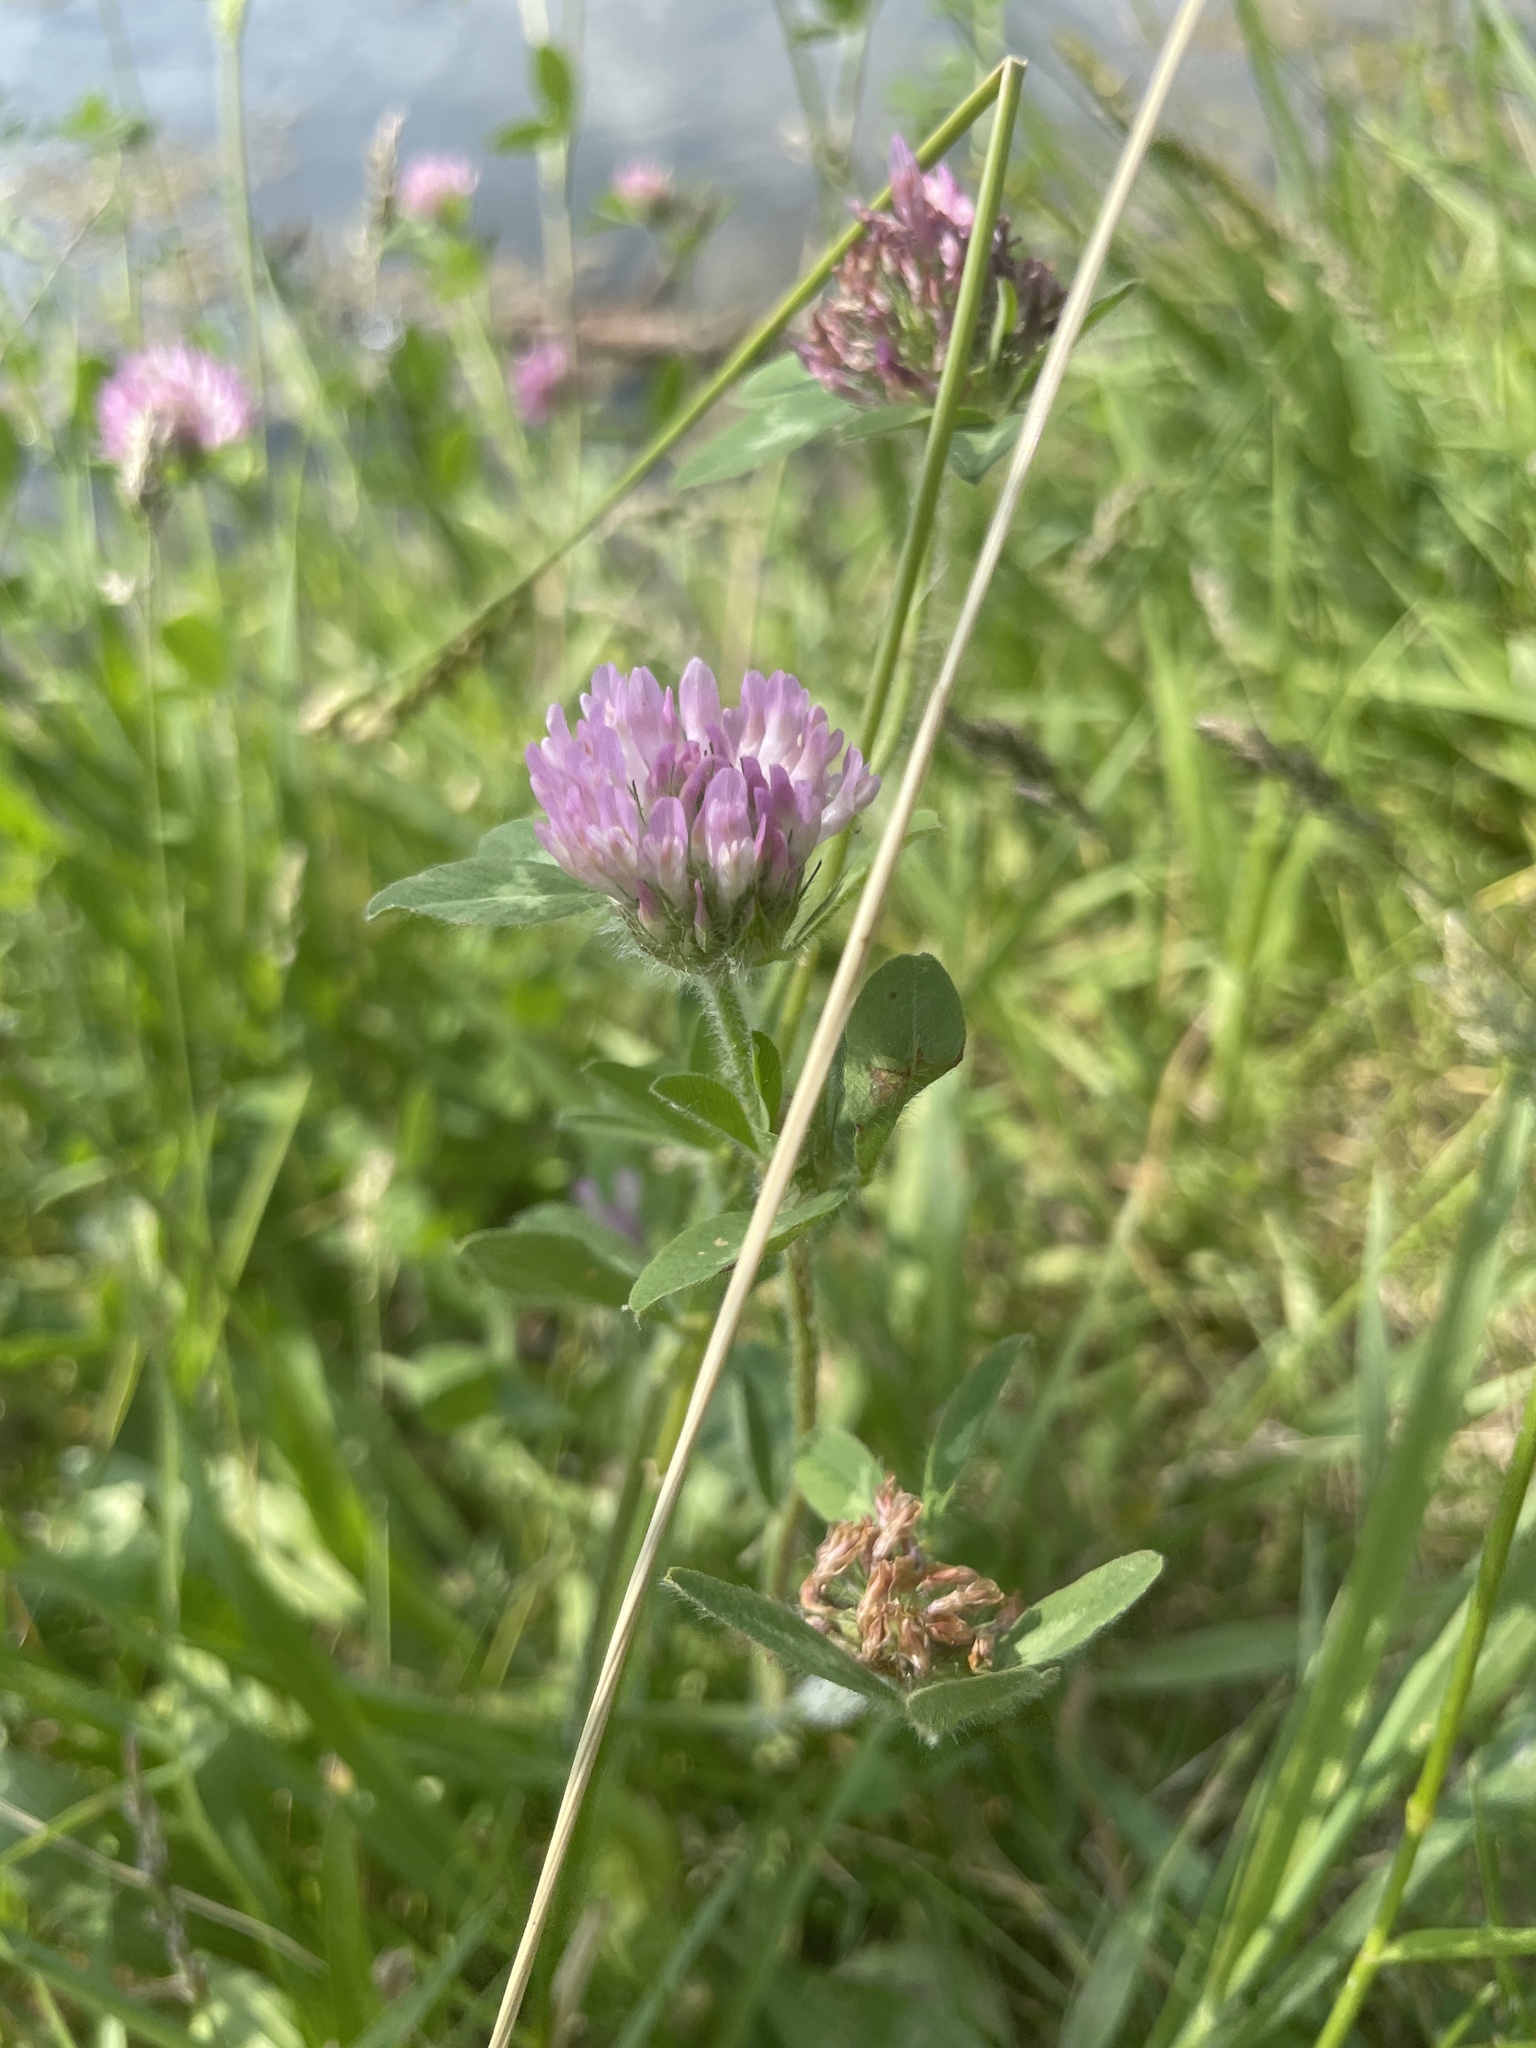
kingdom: Plantae
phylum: Tracheophyta
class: Magnoliopsida
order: Fabales
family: Fabaceae
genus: Trifolium
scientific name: Trifolium pratense
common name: Red clover
